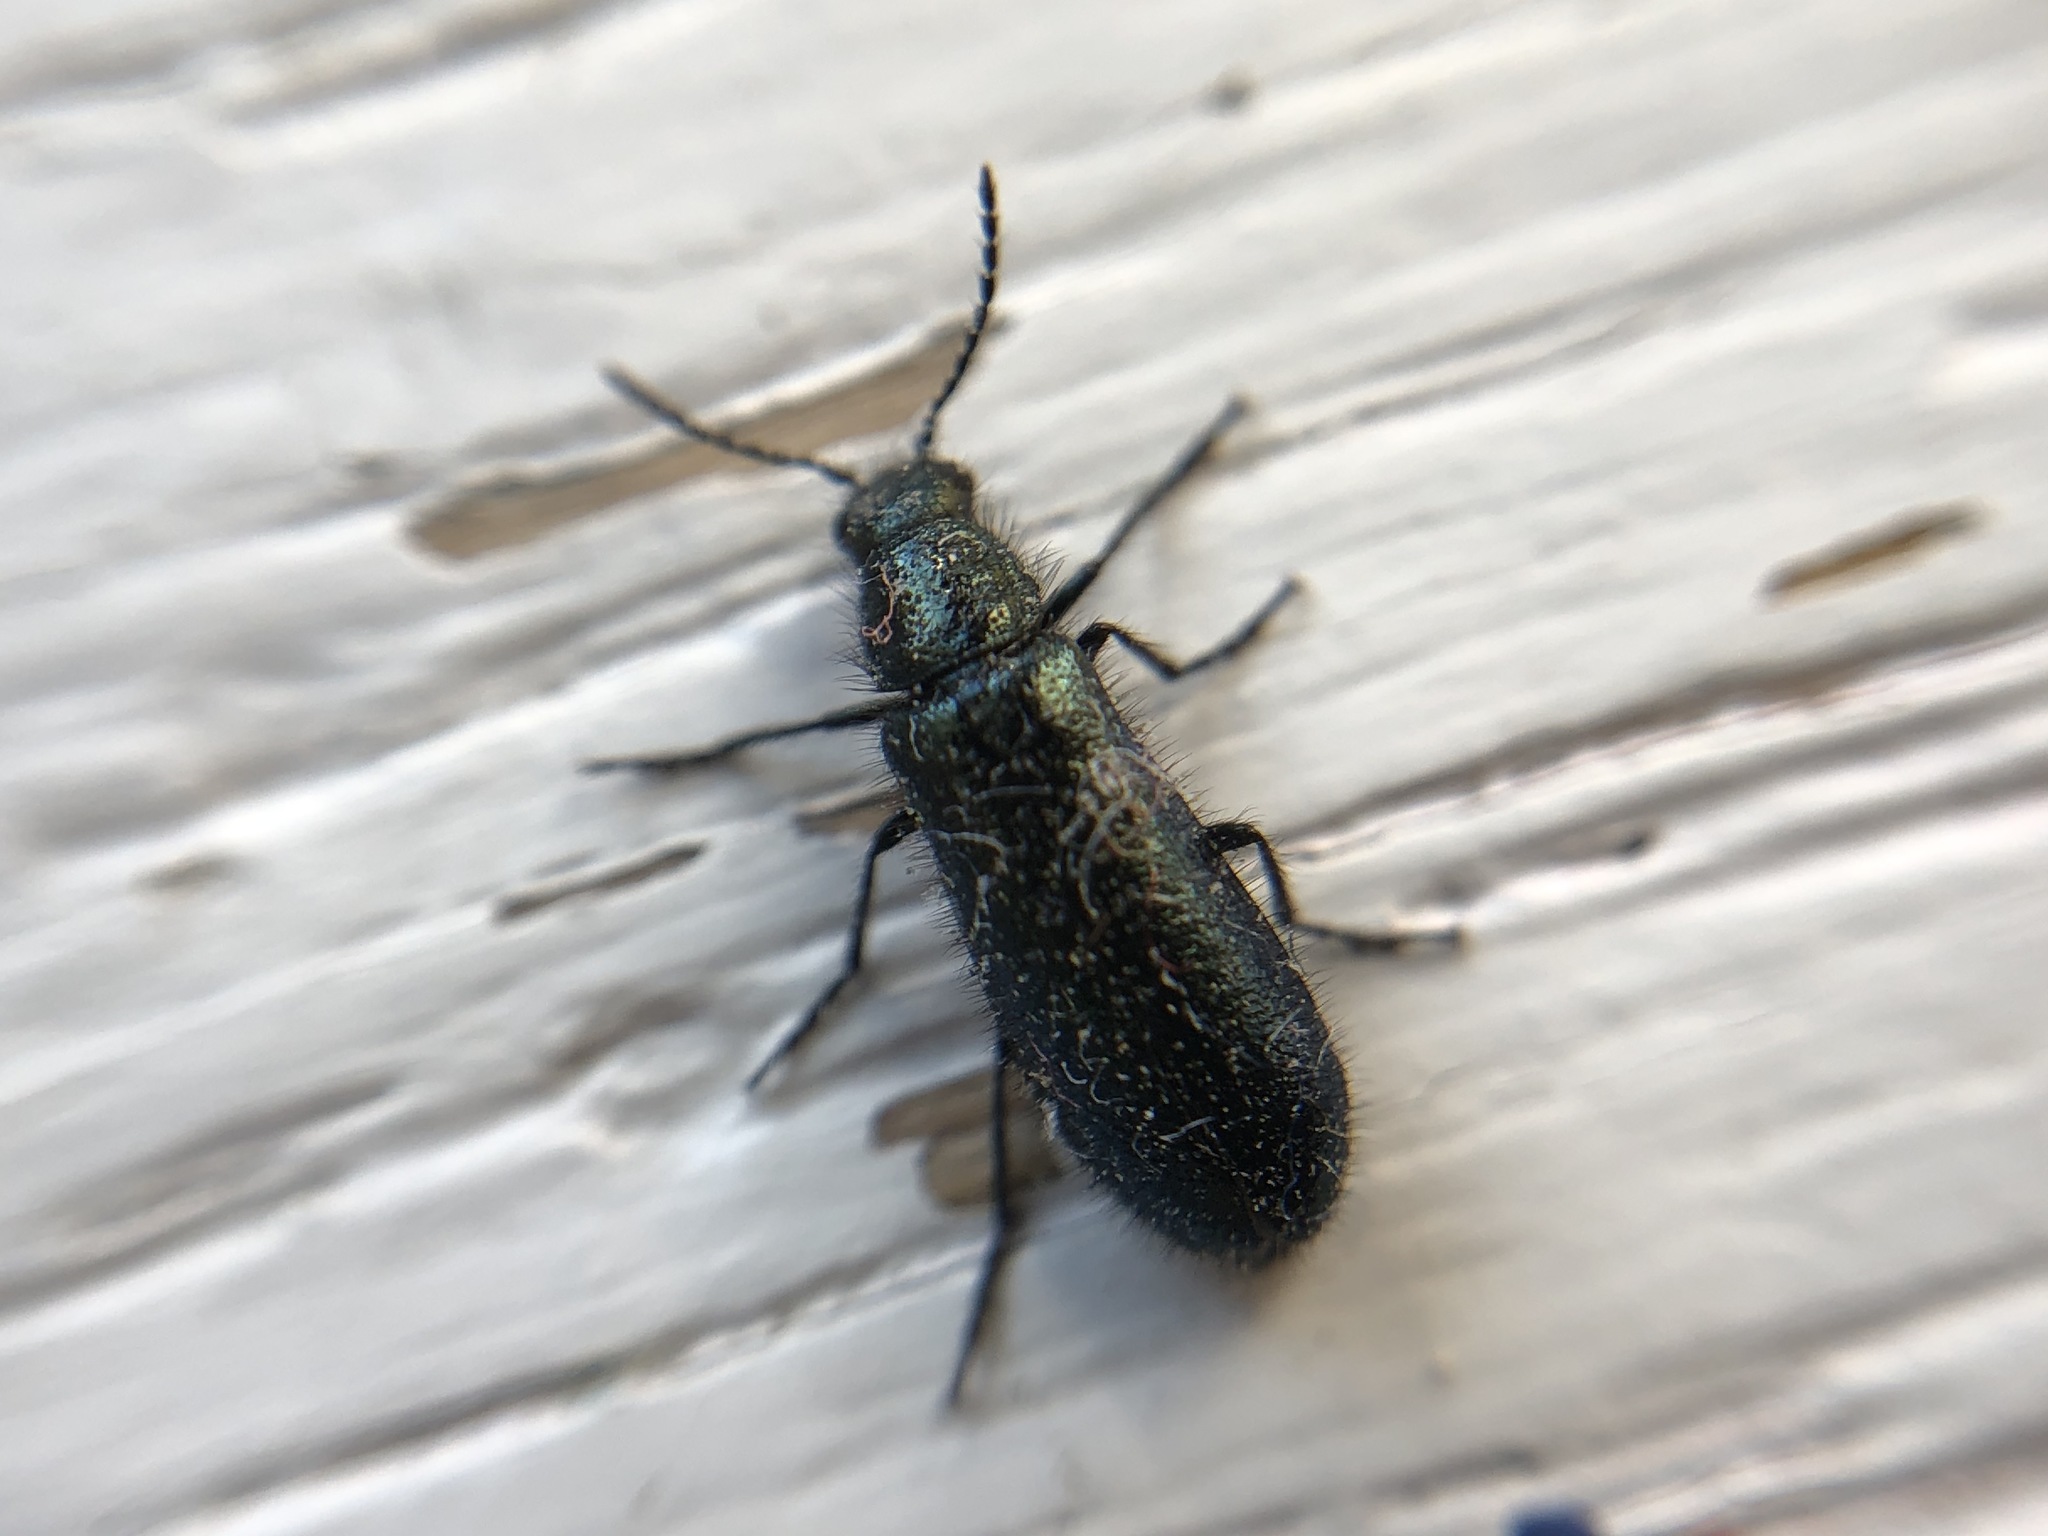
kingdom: Animalia
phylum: Arthropoda
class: Insecta
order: Coleoptera
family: Melyridae
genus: Dasytes
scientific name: Dasytes caeruleus
